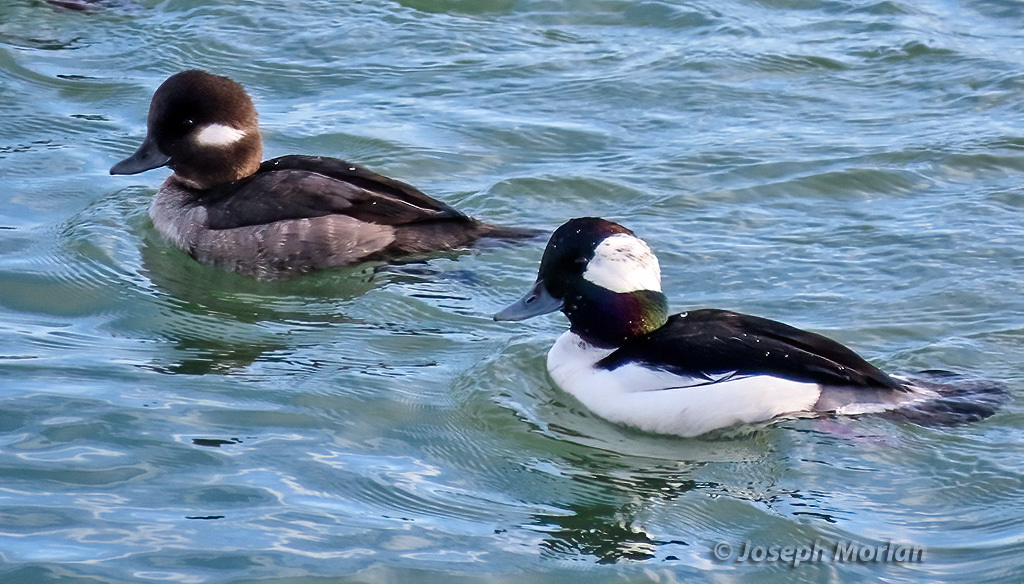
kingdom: Animalia
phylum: Chordata
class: Aves
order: Anseriformes
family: Anatidae
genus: Bucephala
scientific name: Bucephala albeola
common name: Bufflehead
